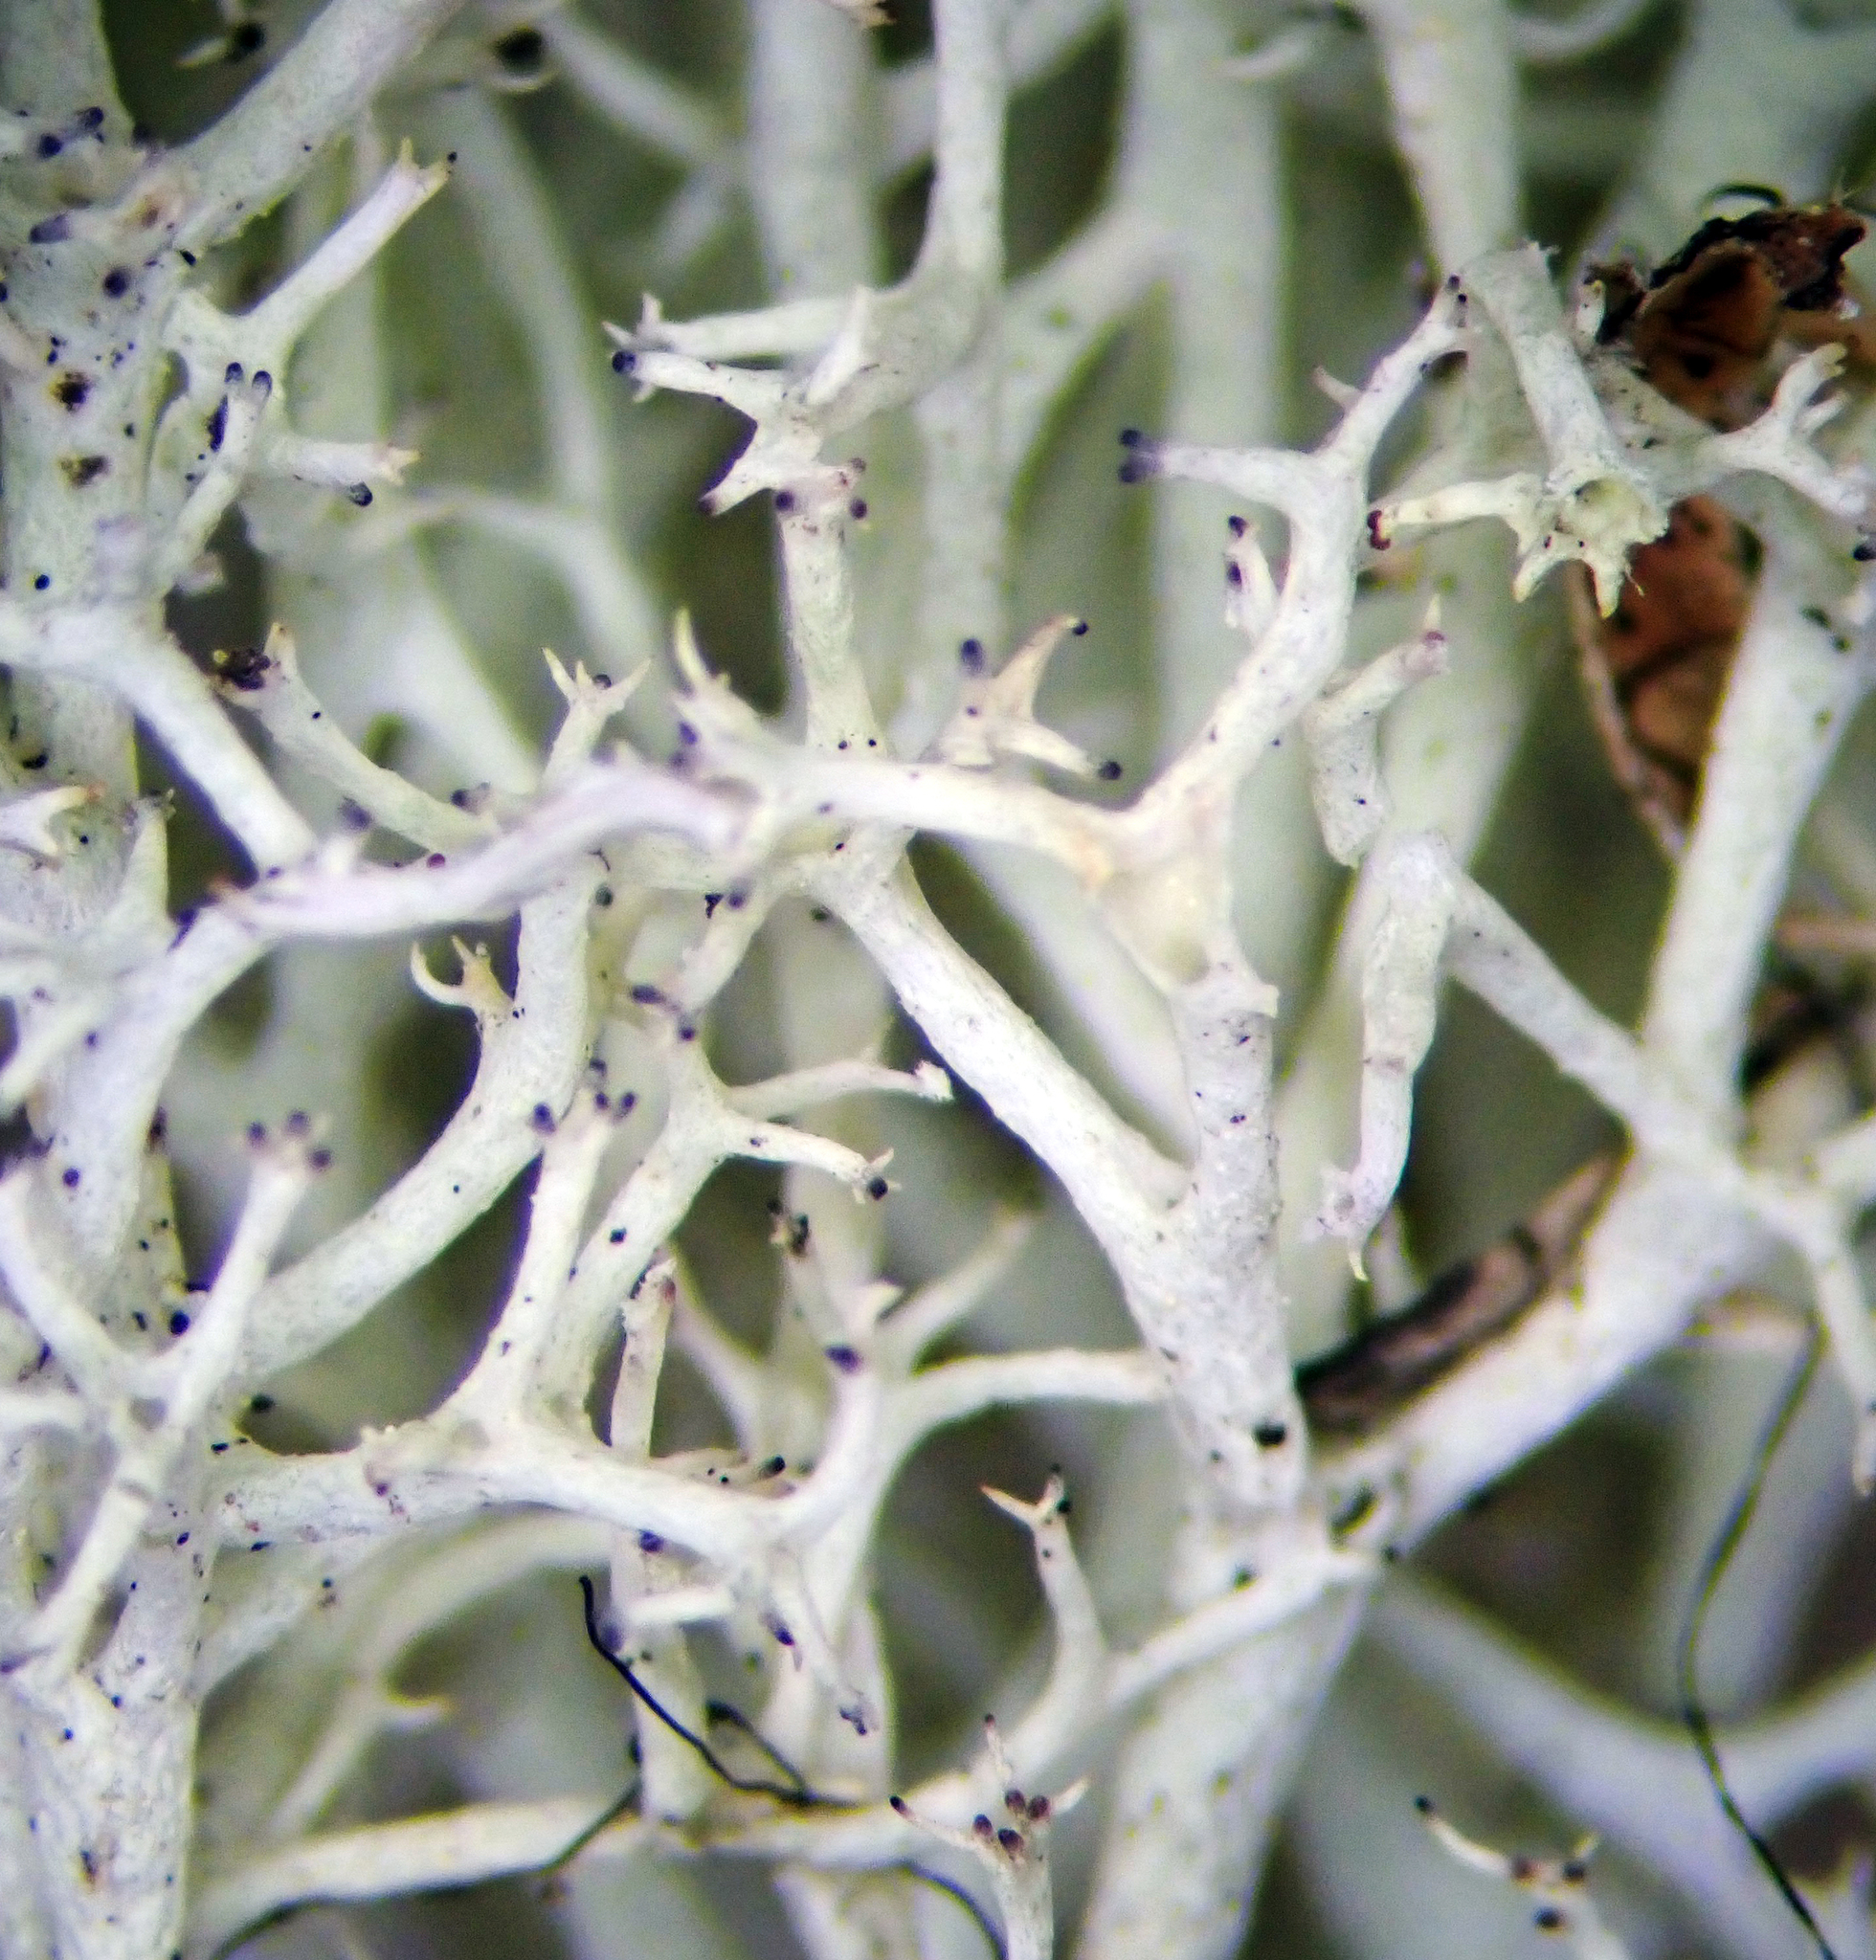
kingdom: Fungi
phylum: Ascomycota
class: Lecanoromycetes
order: Lecanorales
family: Cladoniaceae
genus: Cladonia
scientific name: Cladonia confusa
